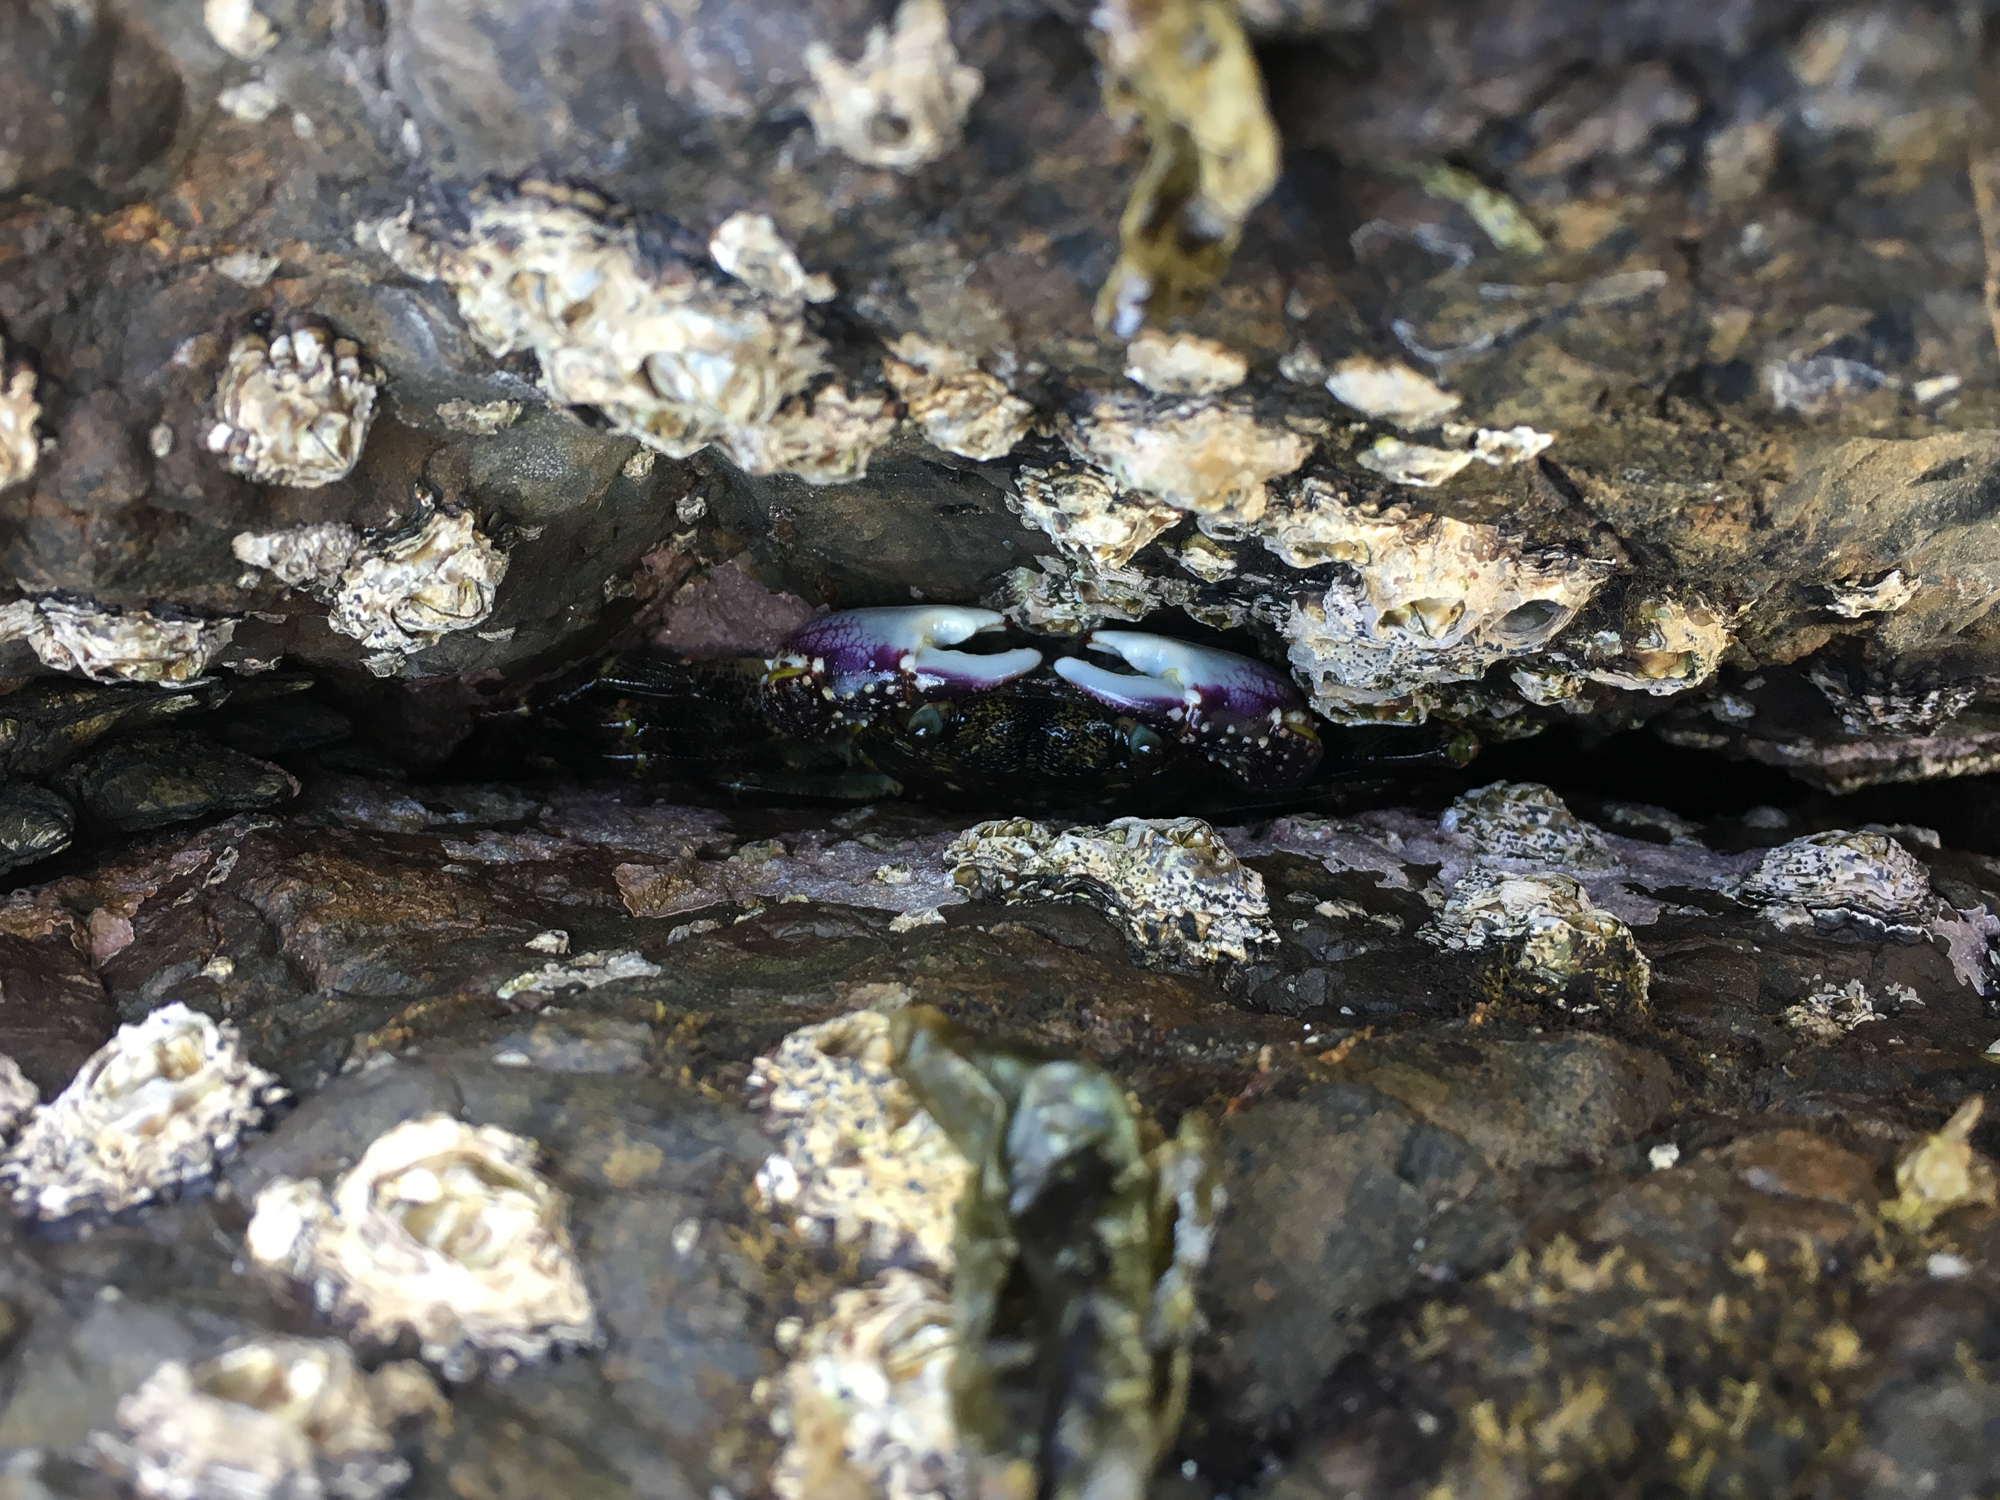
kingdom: Animalia
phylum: Arthropoda
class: Malacostraca
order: Decapoda
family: Grapsidae
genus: Leptograpsus
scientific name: Leptograpsus variegatus
